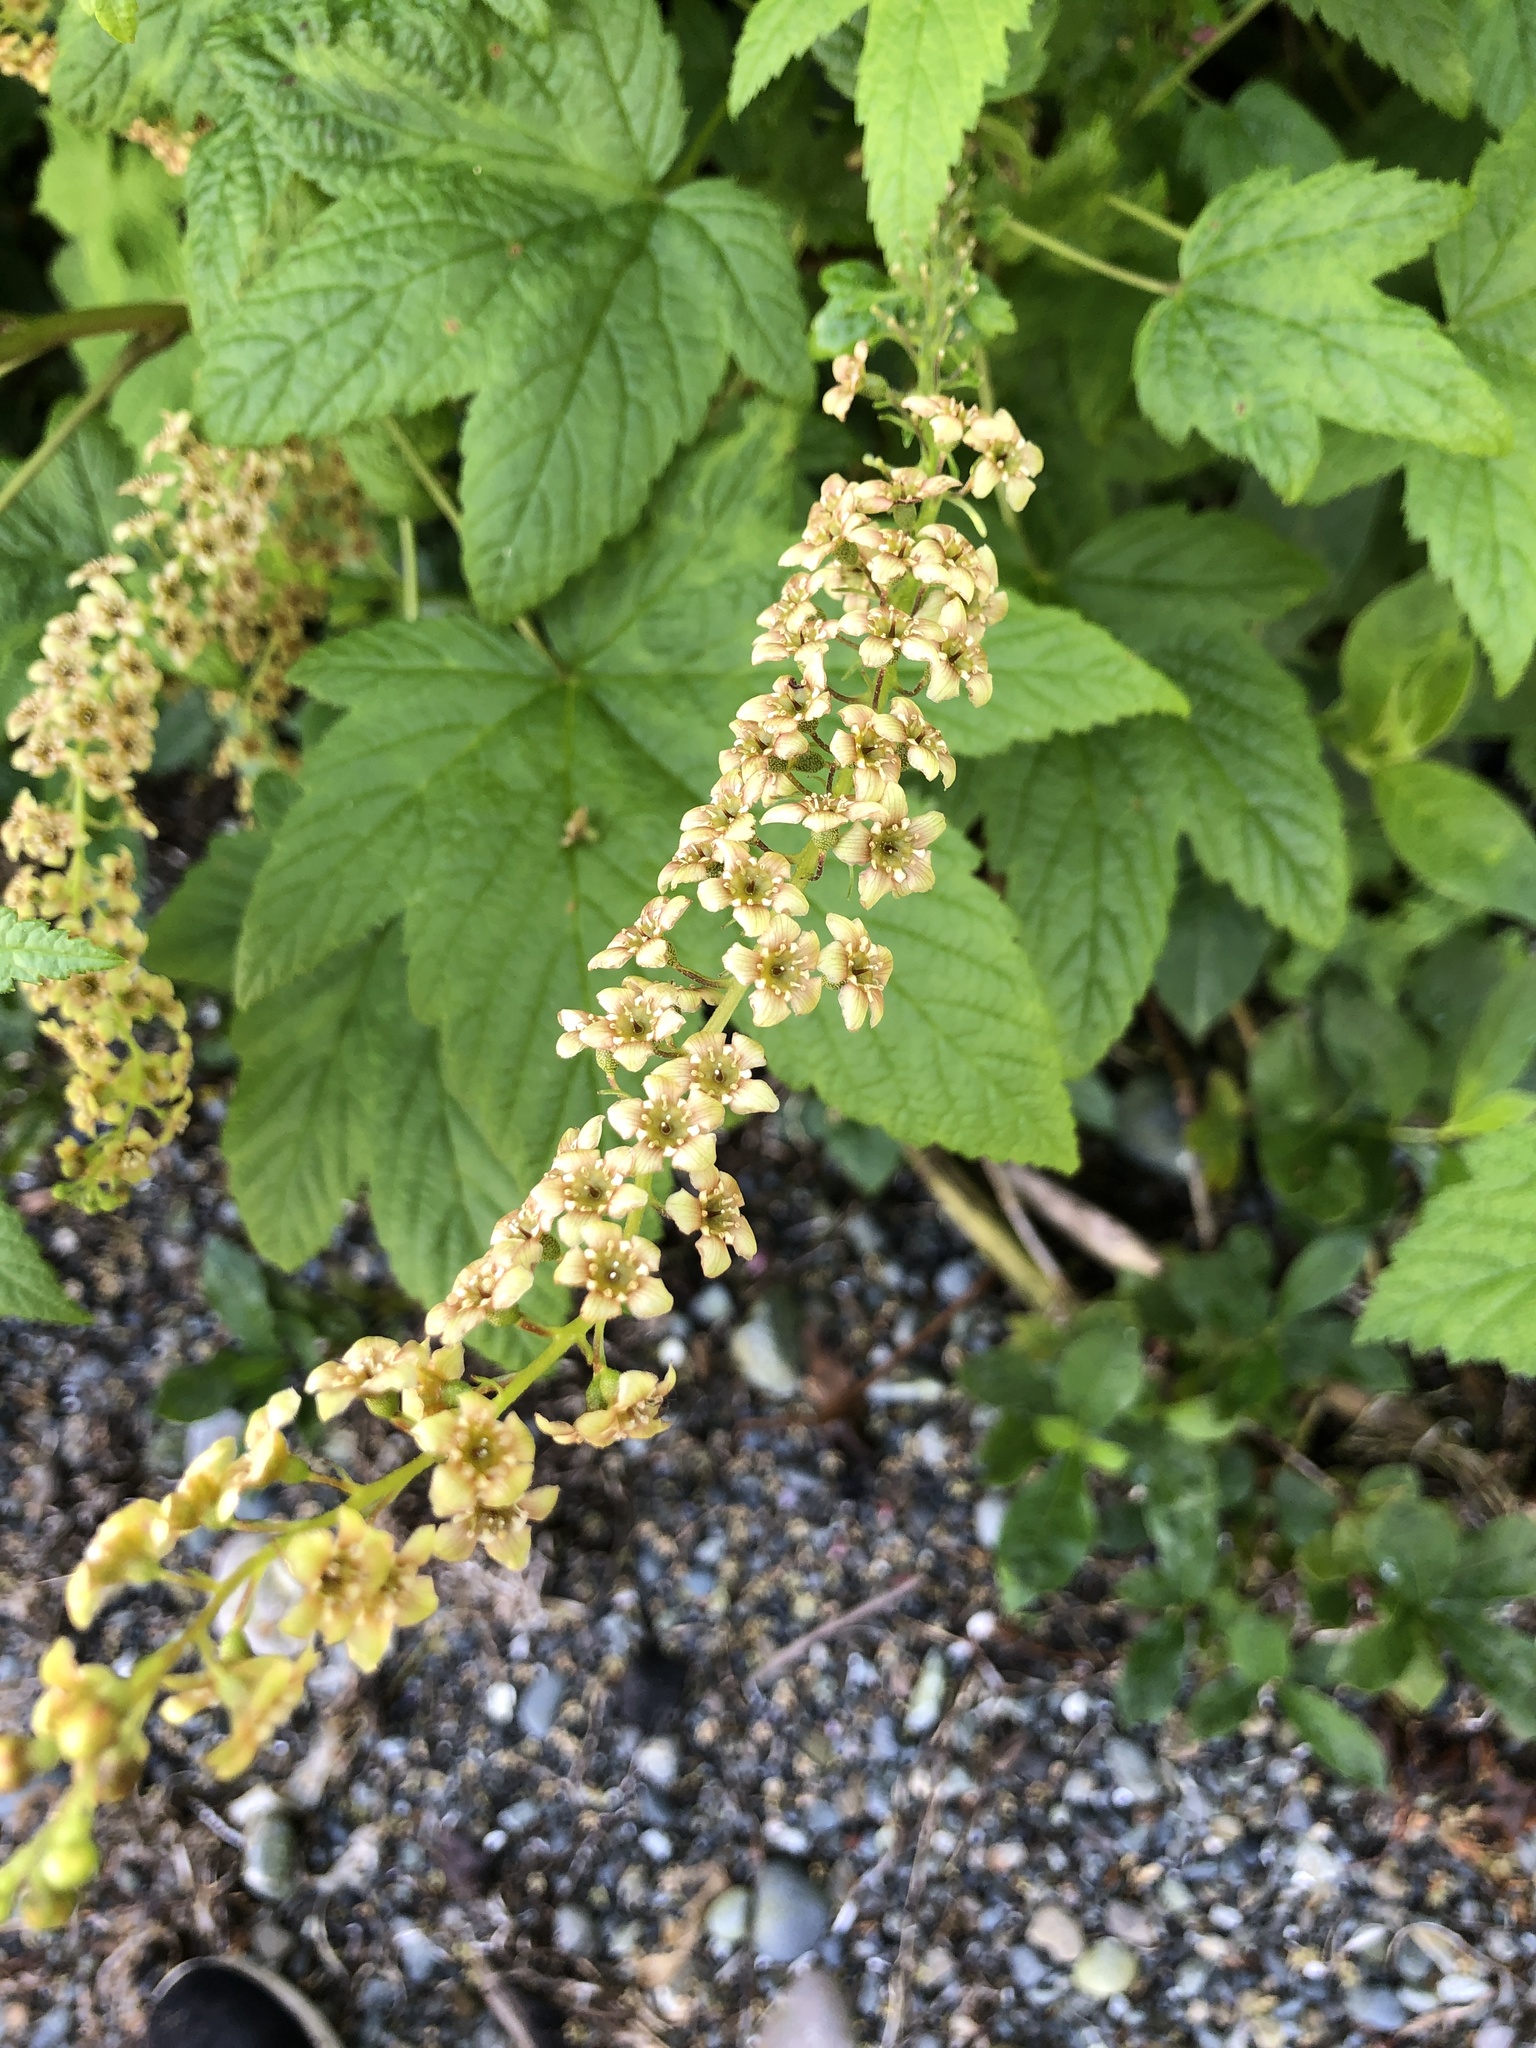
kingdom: Plantae
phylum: Tracheophyta
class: Magnoliopsida
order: Saxifragales
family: Grossulariaceae
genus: Ribes
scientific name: Ribes bracteosum
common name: California black currant
